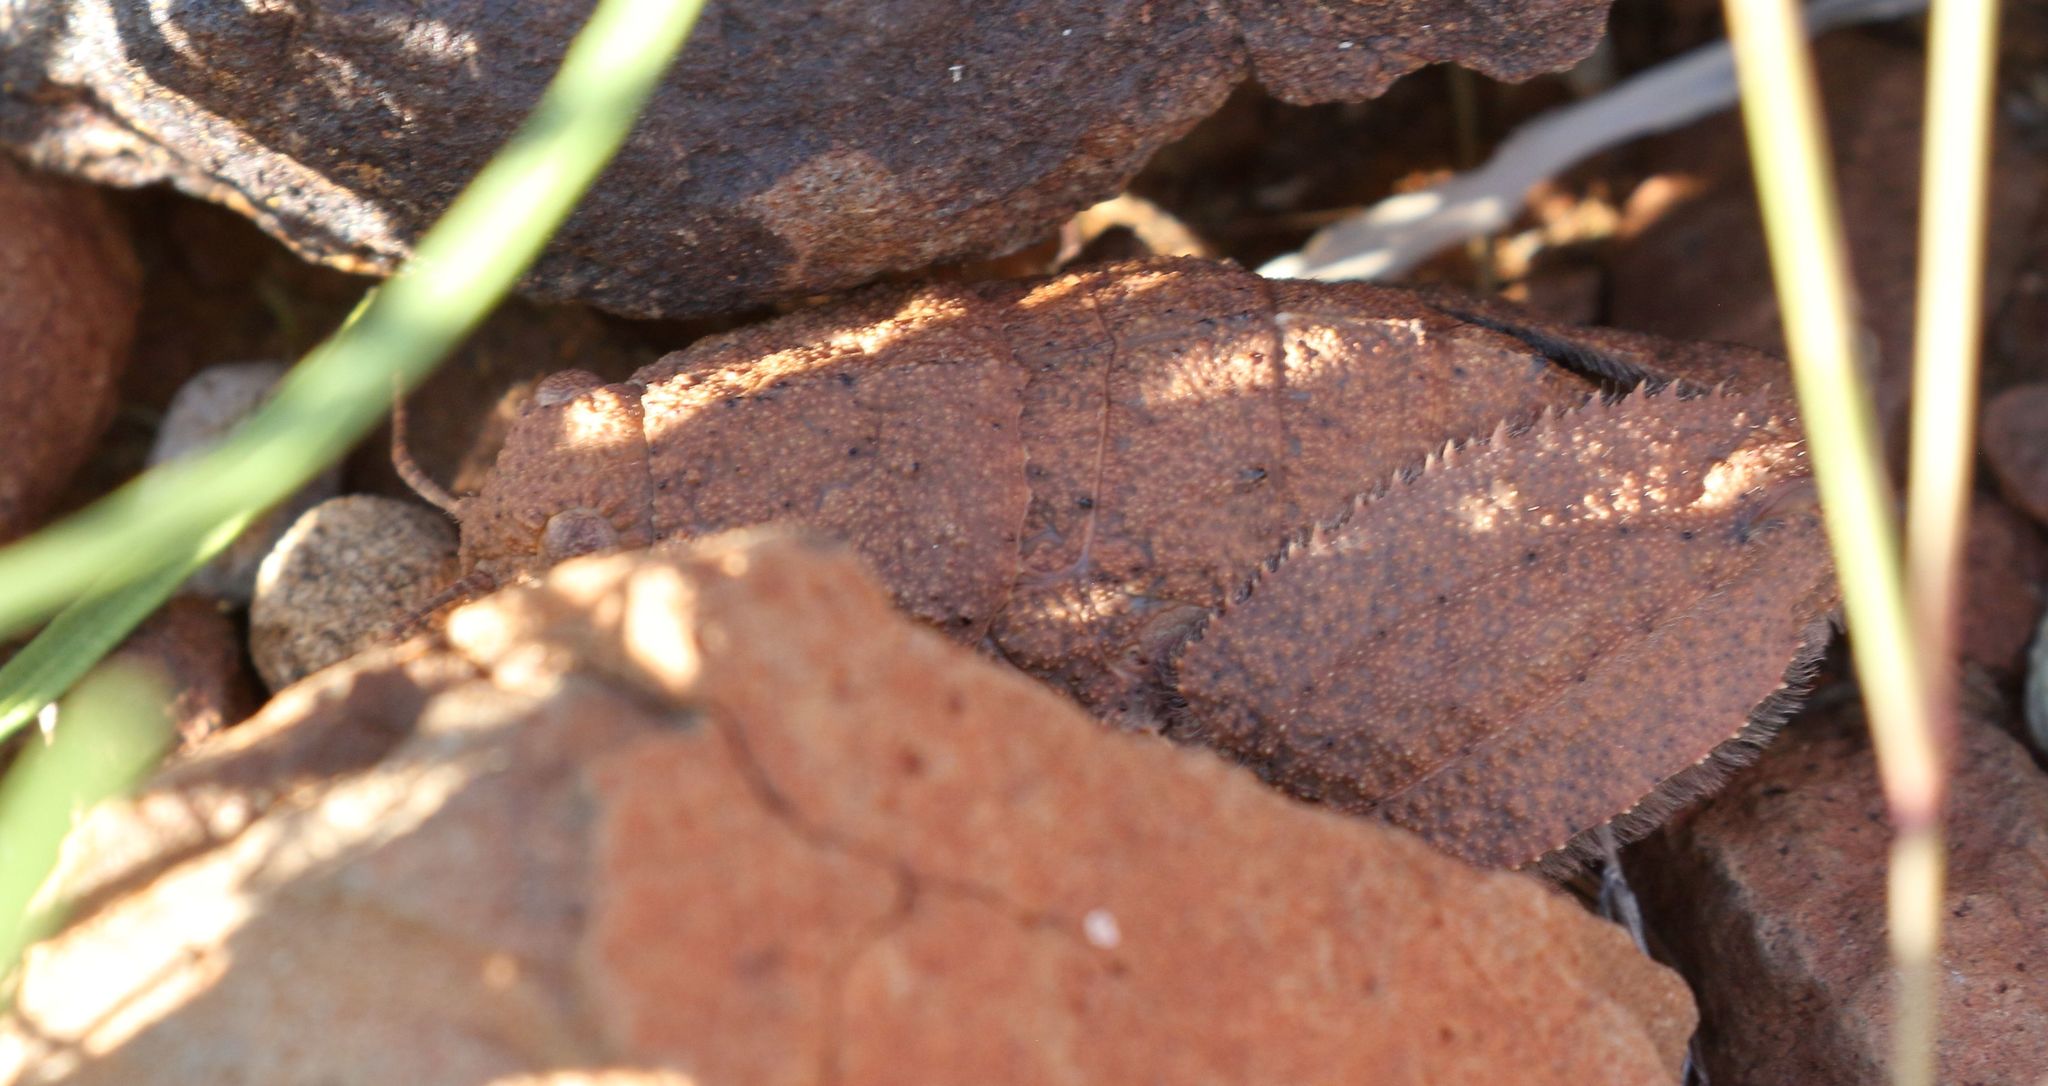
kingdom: Animalia
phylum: Arthropoda
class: Insecta
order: Orthoptera
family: Pamphagidae
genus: Trachypetrella
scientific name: Trachypetrella anderssonii
